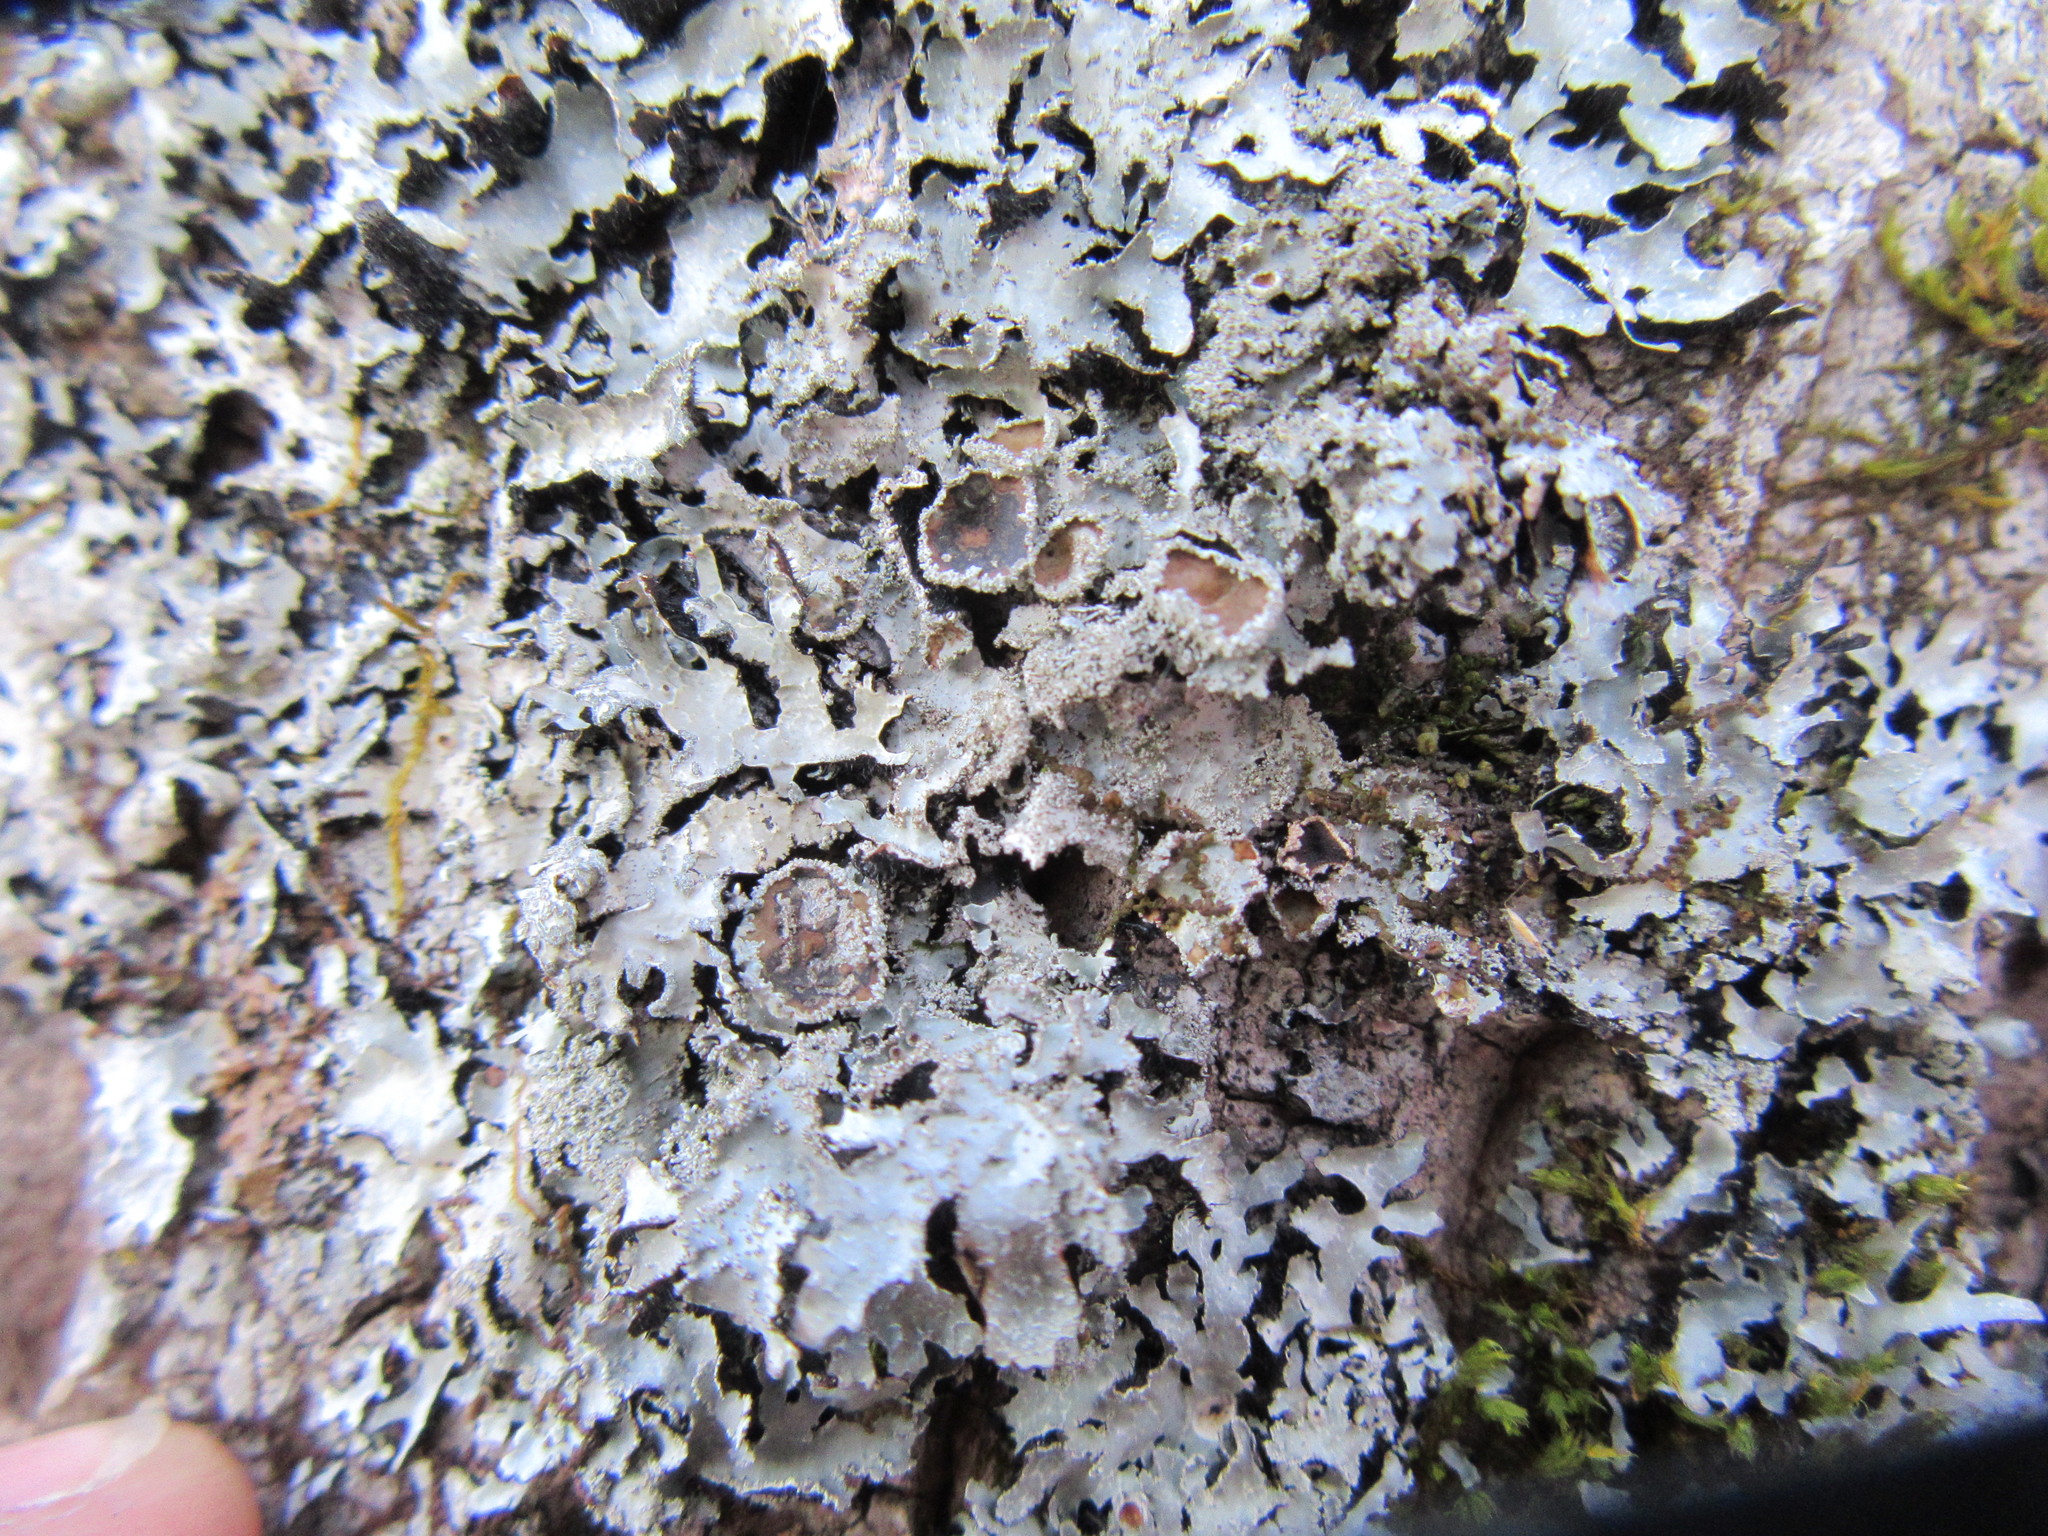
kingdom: Fungi
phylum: Ascomycota
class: Lecanoromycetes
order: Lecanorales
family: Parmeliaceae
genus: Parmelia
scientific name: Parmelia squarrosa
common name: Bottle brush shield lichen
